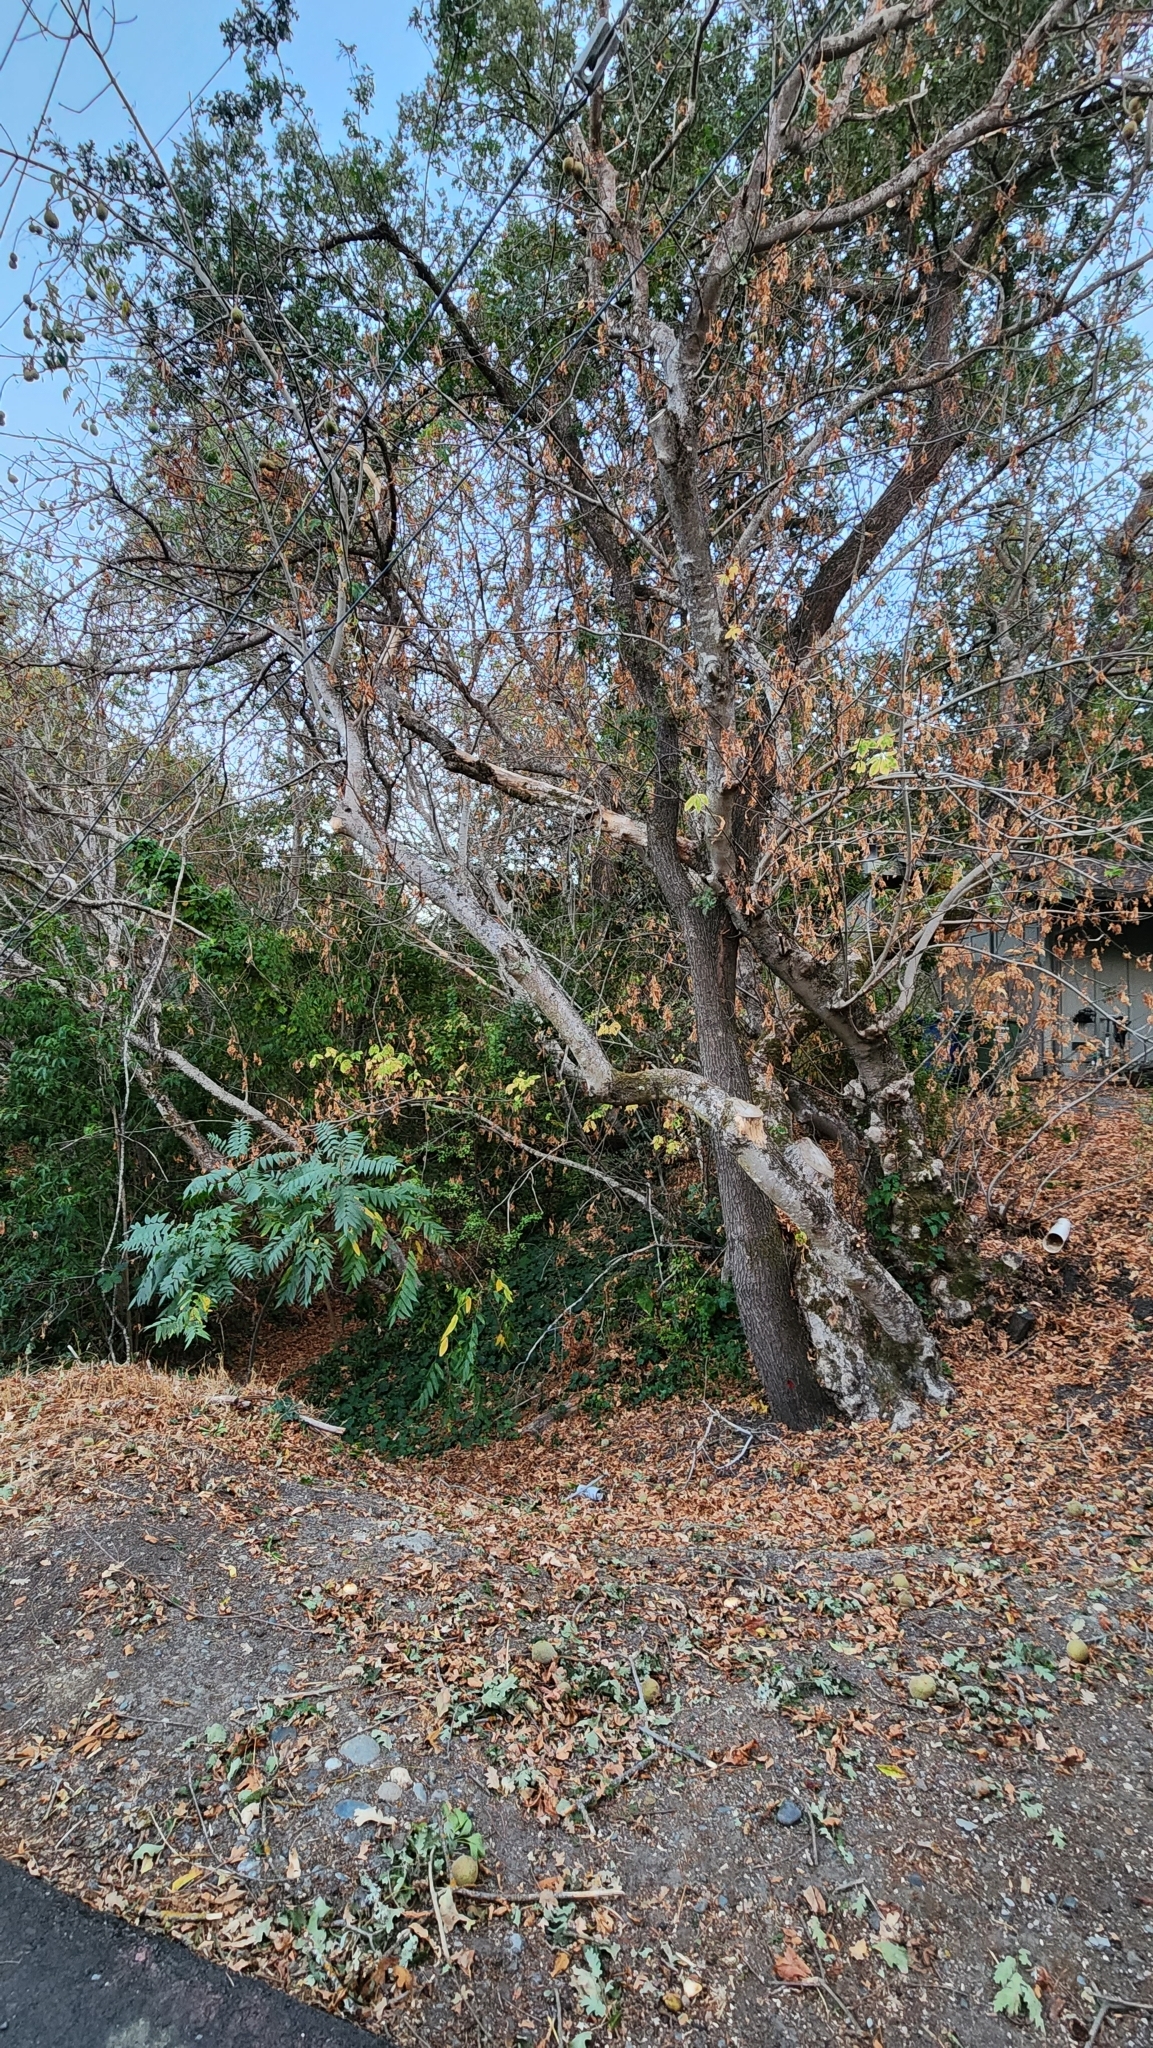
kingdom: Plantae
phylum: Tracheophyta
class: Magnoliopsida
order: Sapindales
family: Sapindaceae
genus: Aesculus
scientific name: Aesculus californica
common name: California buckeye
